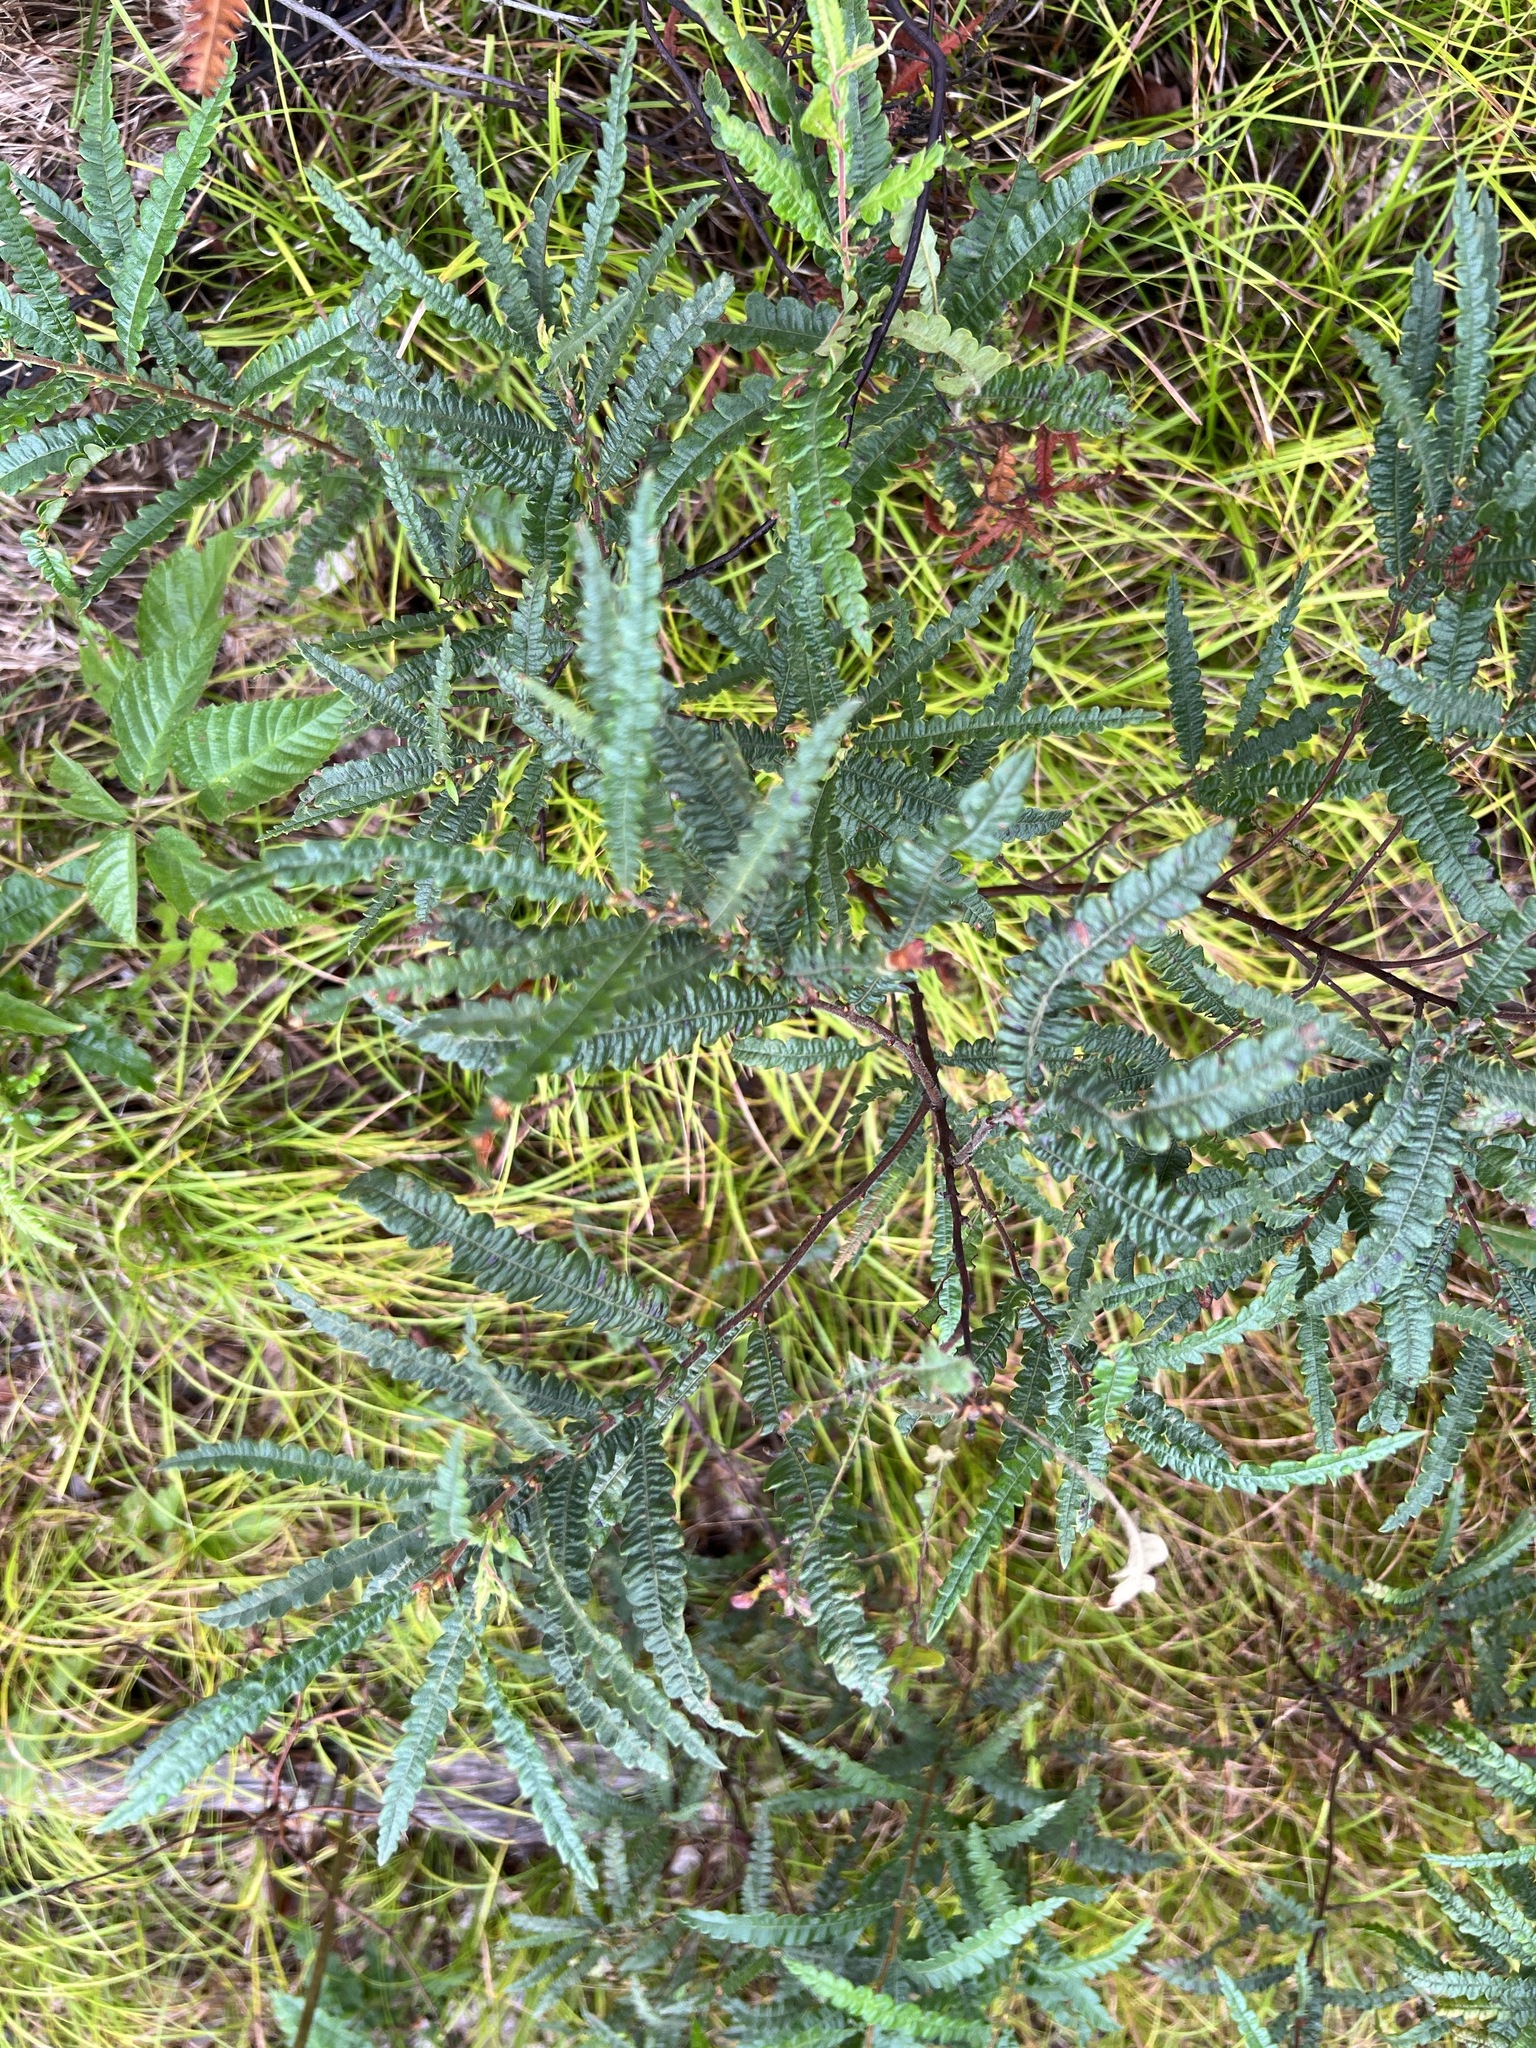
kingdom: Plantae
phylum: Tracheophyta
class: Magnoliopsida
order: Fagales
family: Myricaceae
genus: Comptonia
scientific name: Comptonia peregrina
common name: Sweet-fern
